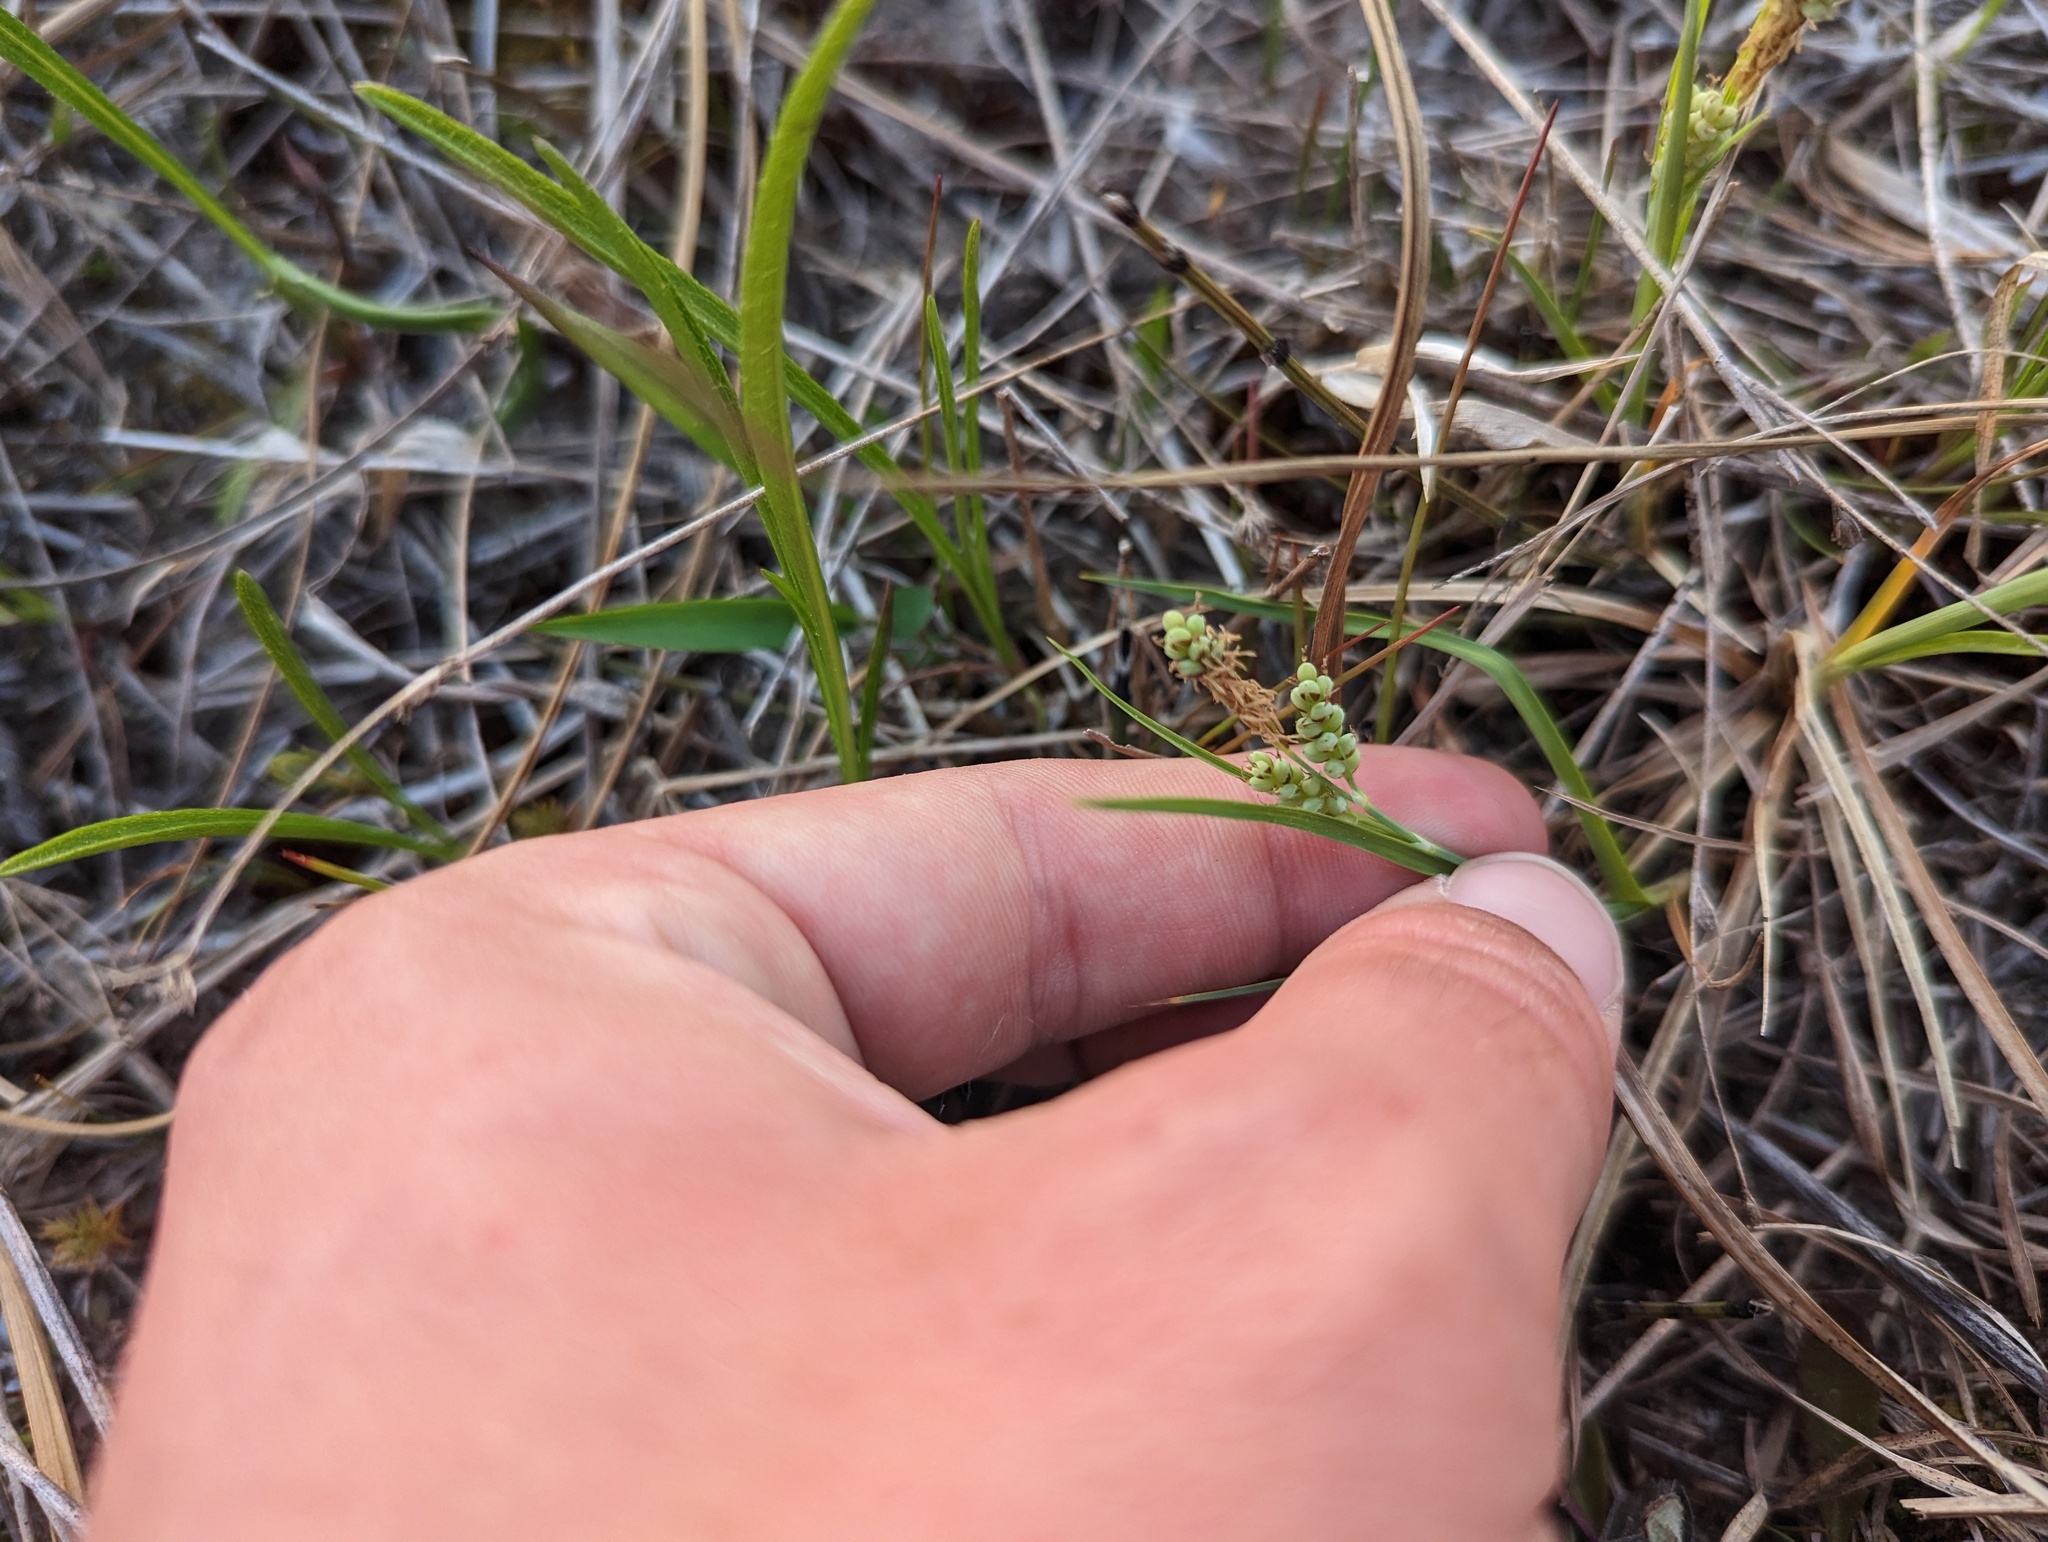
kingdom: Plantae
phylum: Tracheophyta
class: Liliopsida
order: Poales
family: Cyperaceae
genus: Carex
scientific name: Carex garberi
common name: Elk sedge
